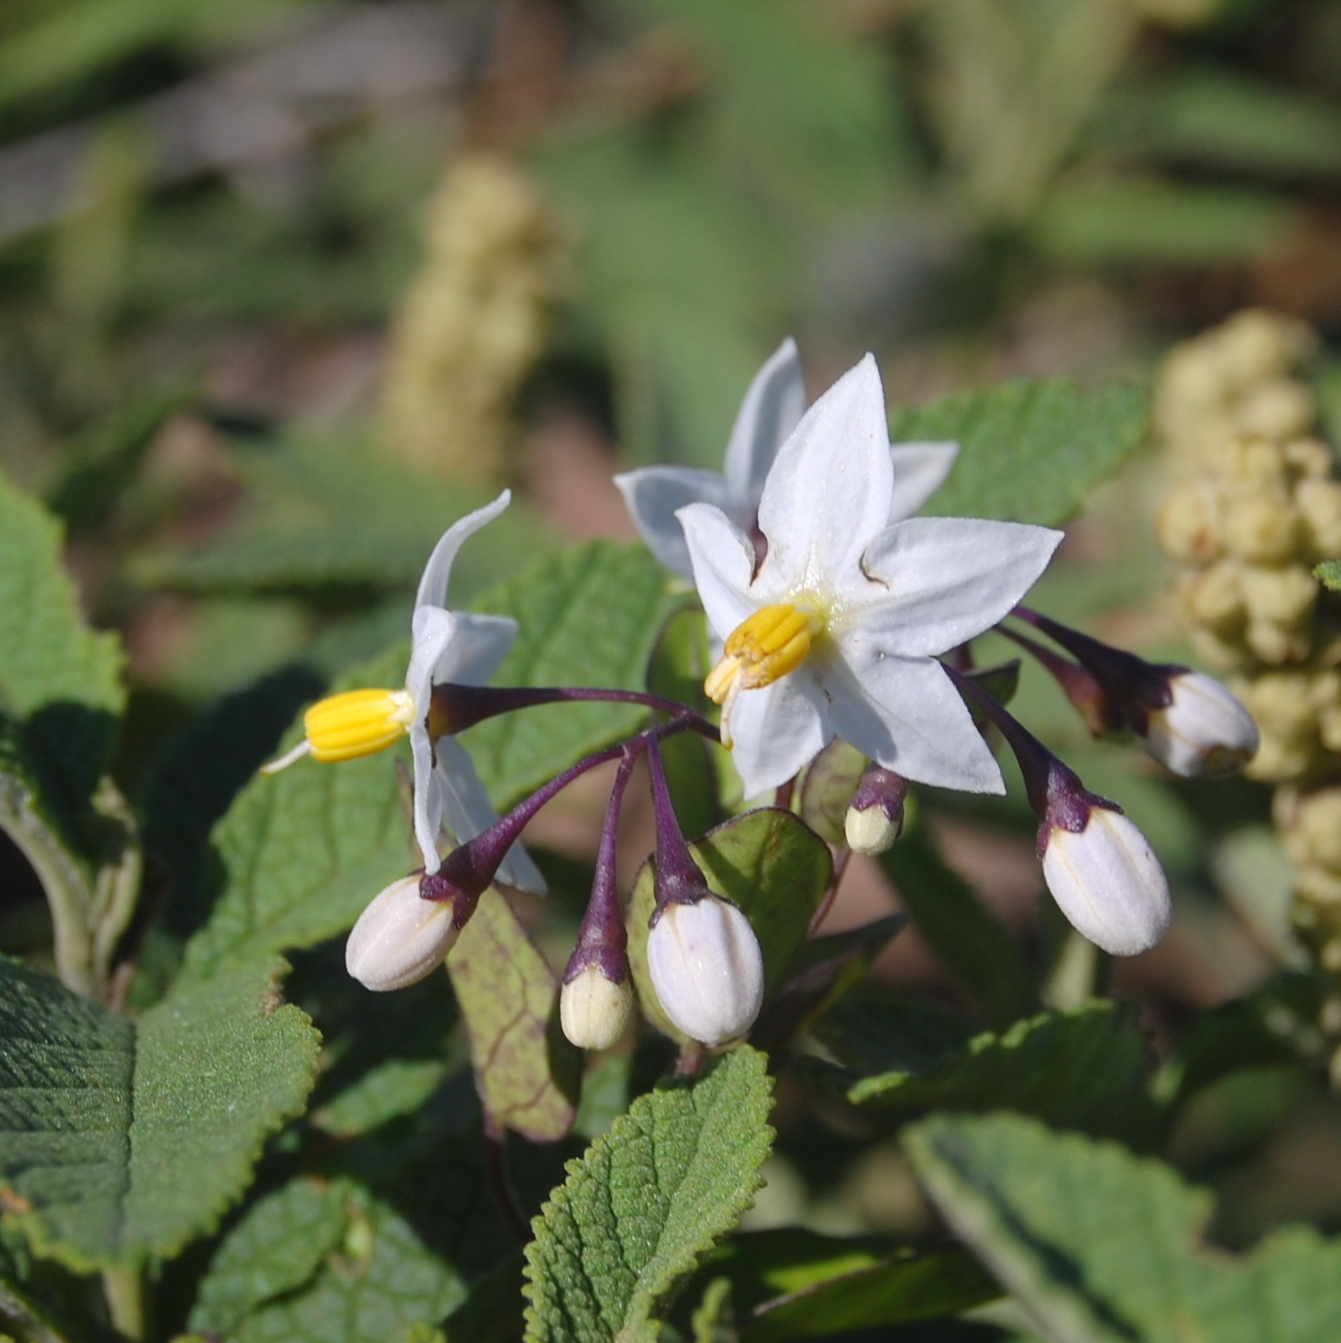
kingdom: Plantae
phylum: Tracheophyta
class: Magnoliopsida
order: Solanales
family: Solanaceae
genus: Solanum
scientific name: Solanum flaccidum
